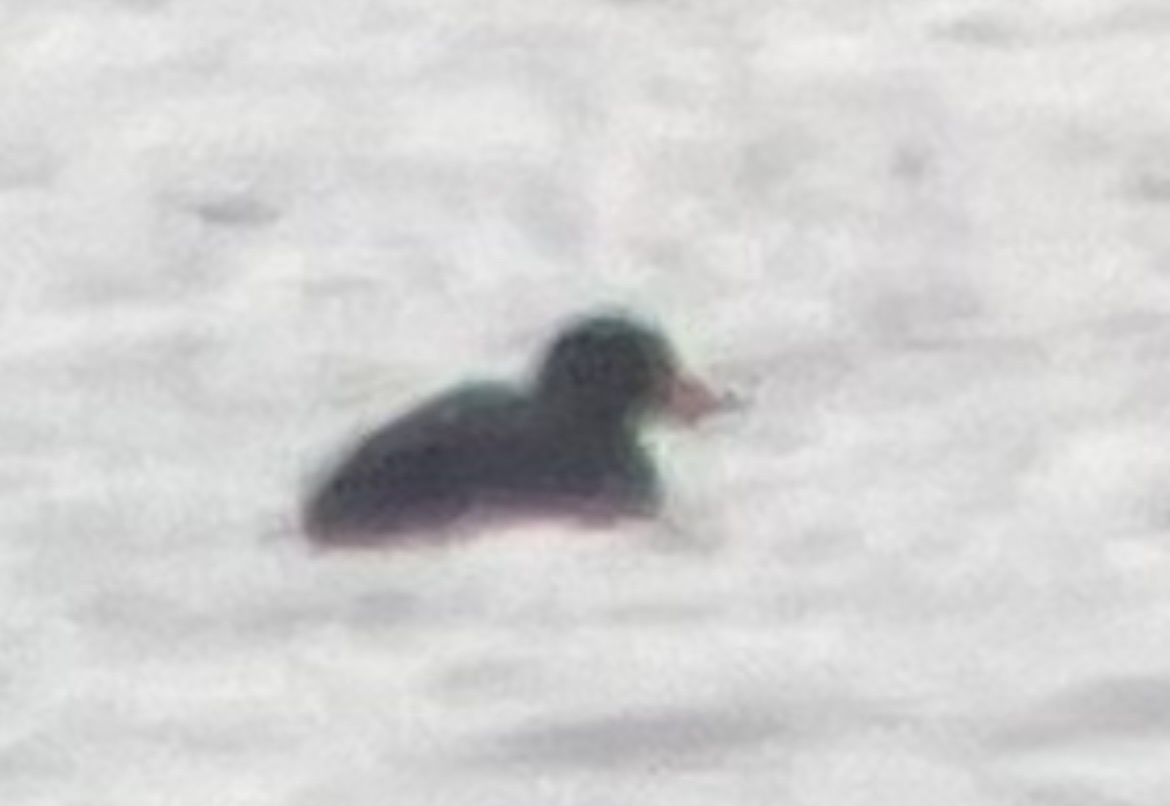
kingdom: Animalia
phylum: Chordata
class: Aves
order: Anseriformes
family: Anatidae
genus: Melanitta
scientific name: Melanitta americana
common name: Black scoter
